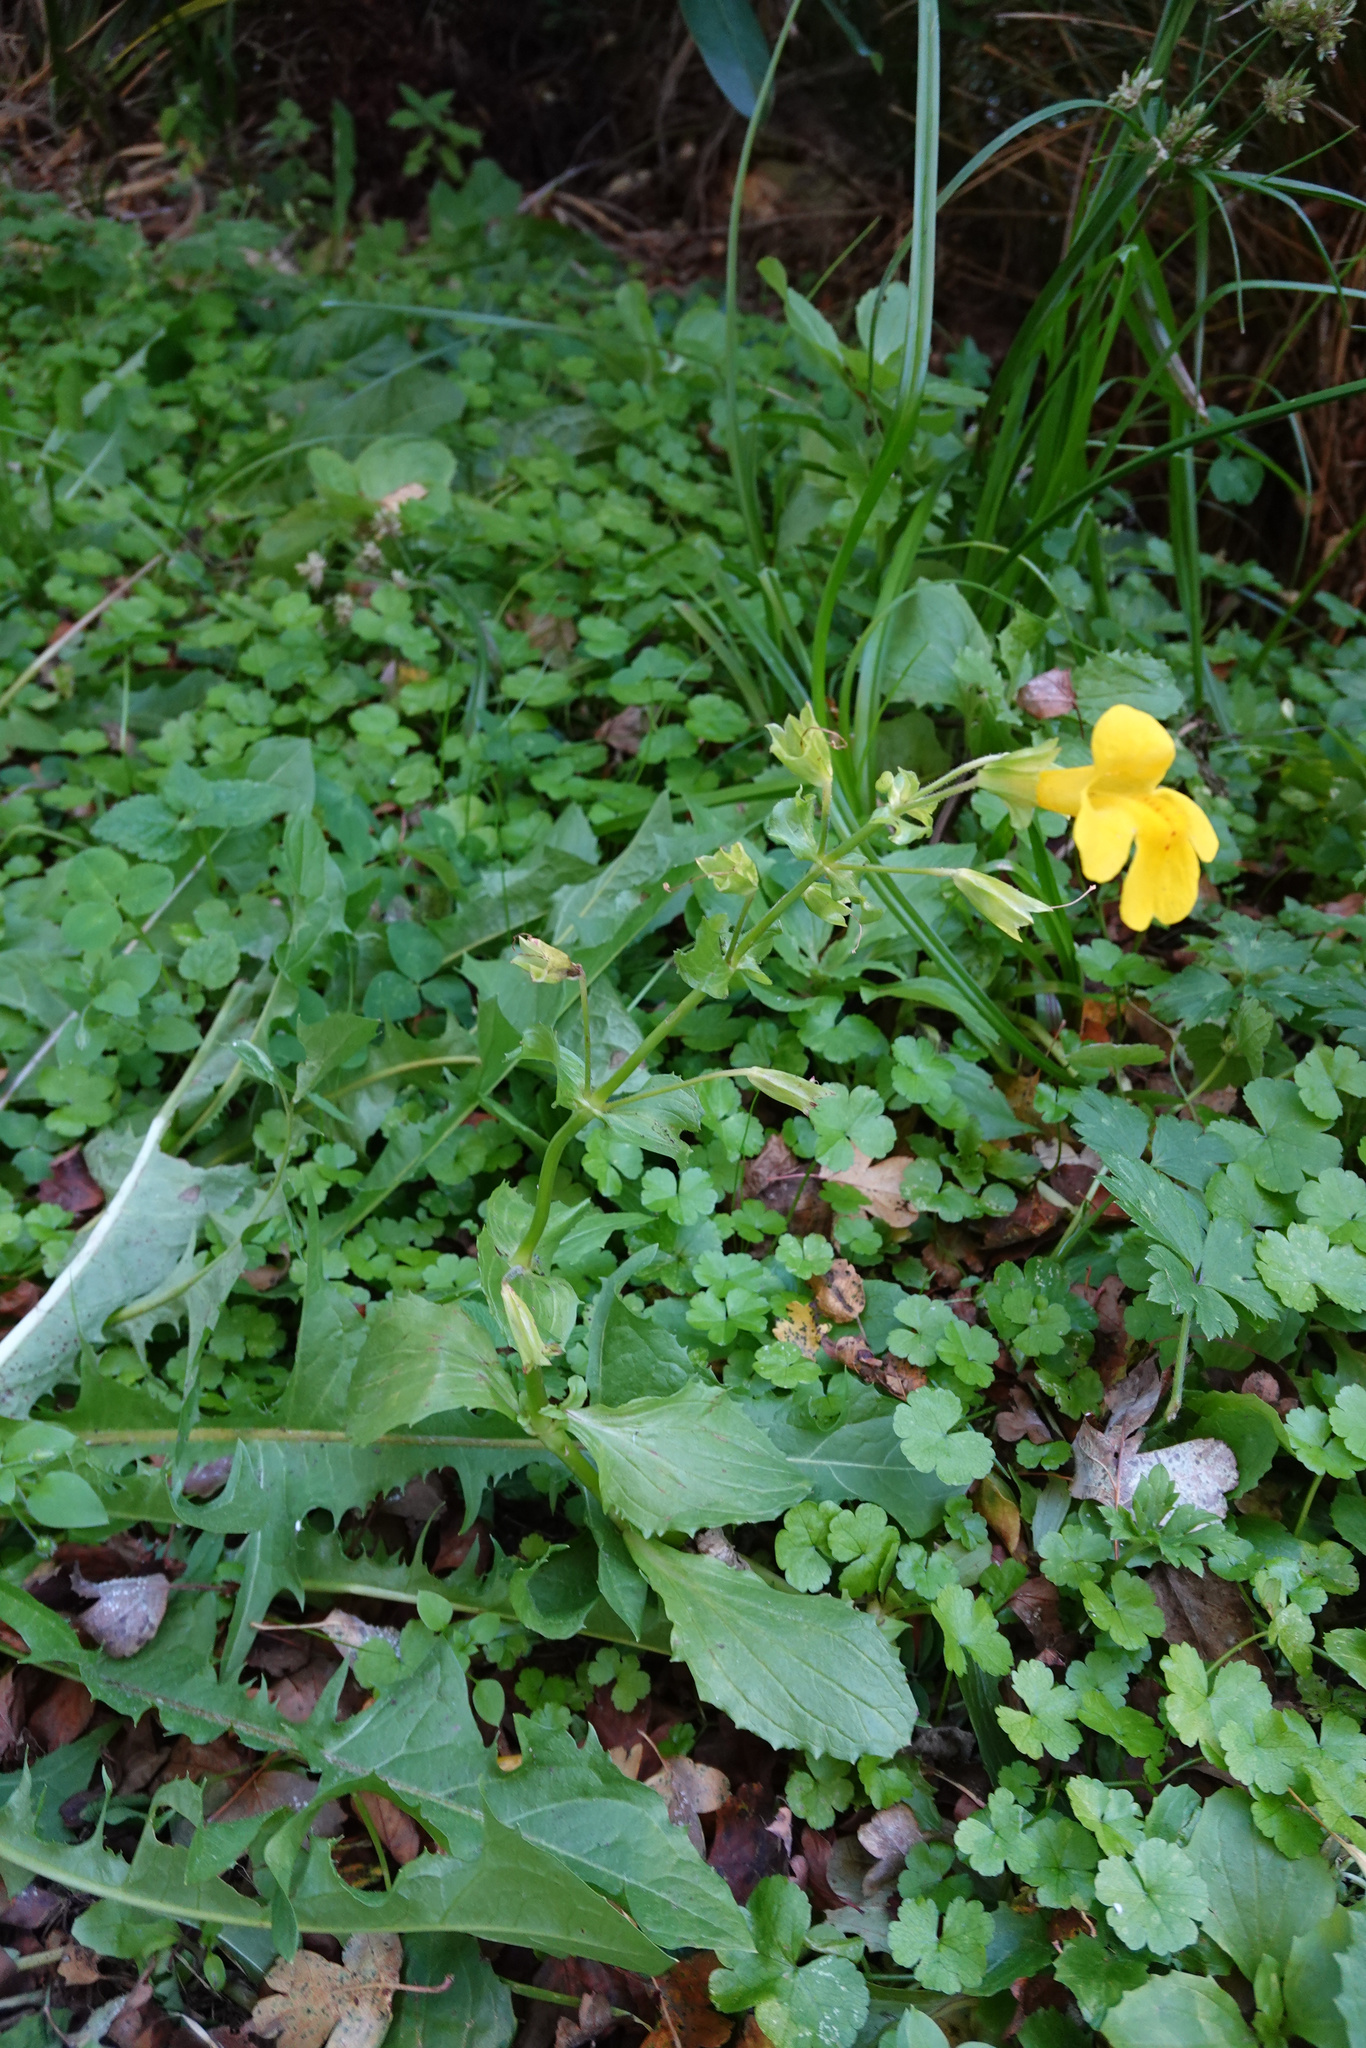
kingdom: Plantae
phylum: Tracheophyta
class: Magnoliopsida
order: Lamiales
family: Phrymaceae
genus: Erythranthe
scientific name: Erythranthe guttata
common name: Monkeyflower
